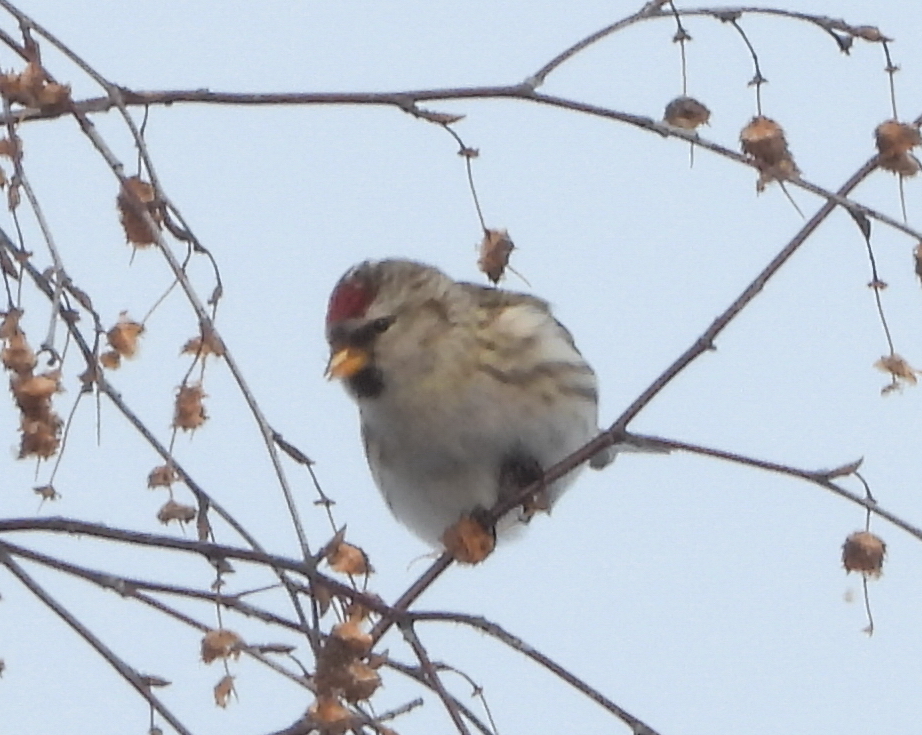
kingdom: Animalia
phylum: Chordata
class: Aves
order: Passeriformes
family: Fringillidae
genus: Acanthis
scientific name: Acanthis flammea
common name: Common redpoll
